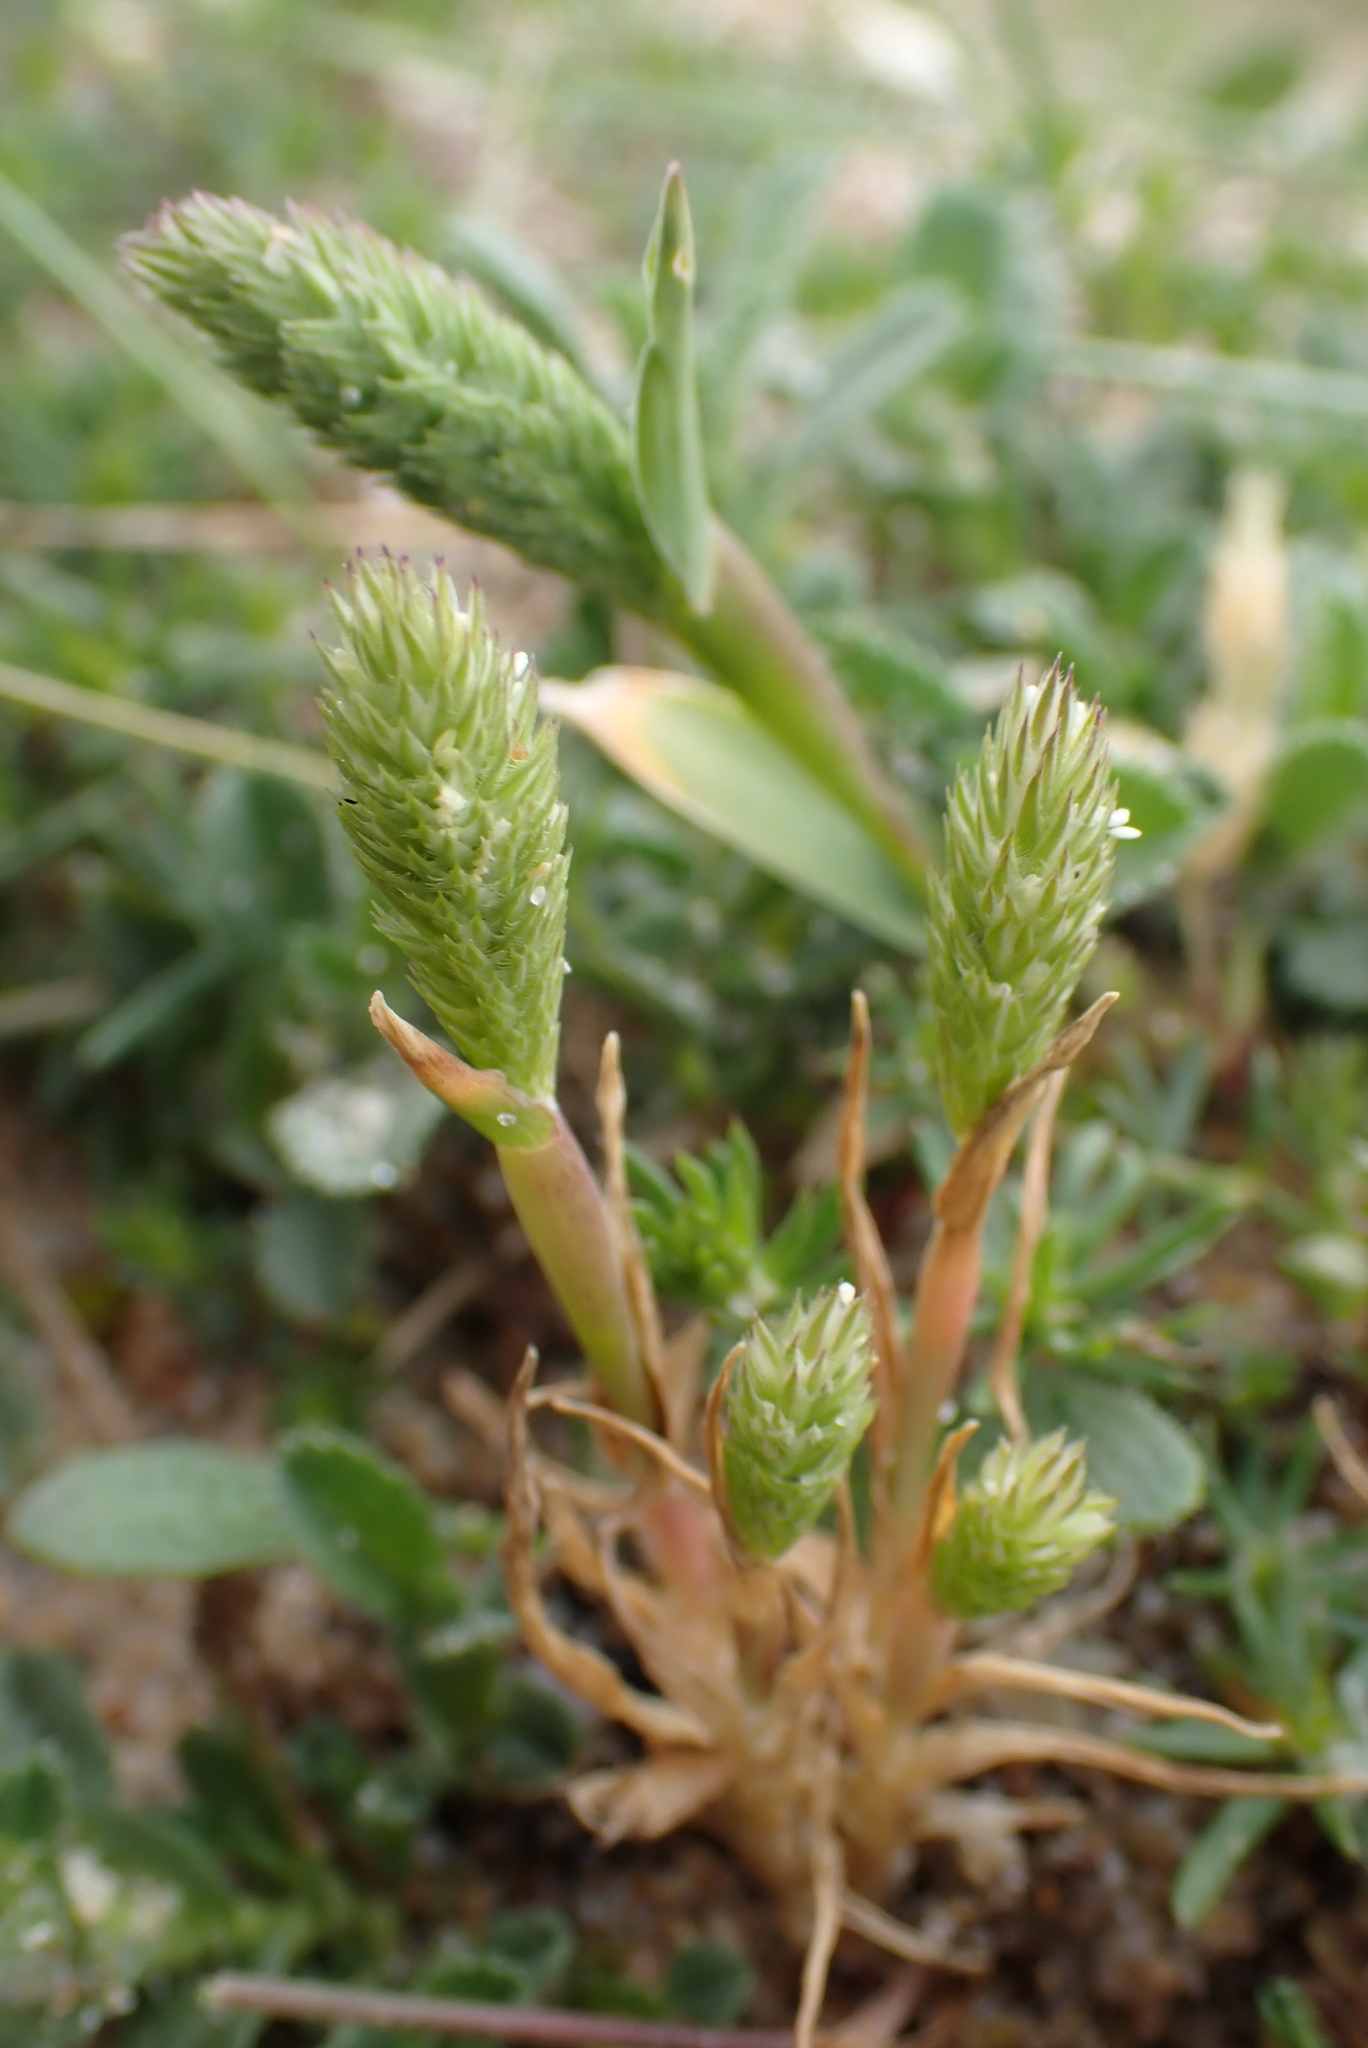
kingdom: Plantae
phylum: Tracheophyta
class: Liliopsida
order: Poales
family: Poaceae
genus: Phleum
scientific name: Phleum arenarium
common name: Sand cat's-tail
